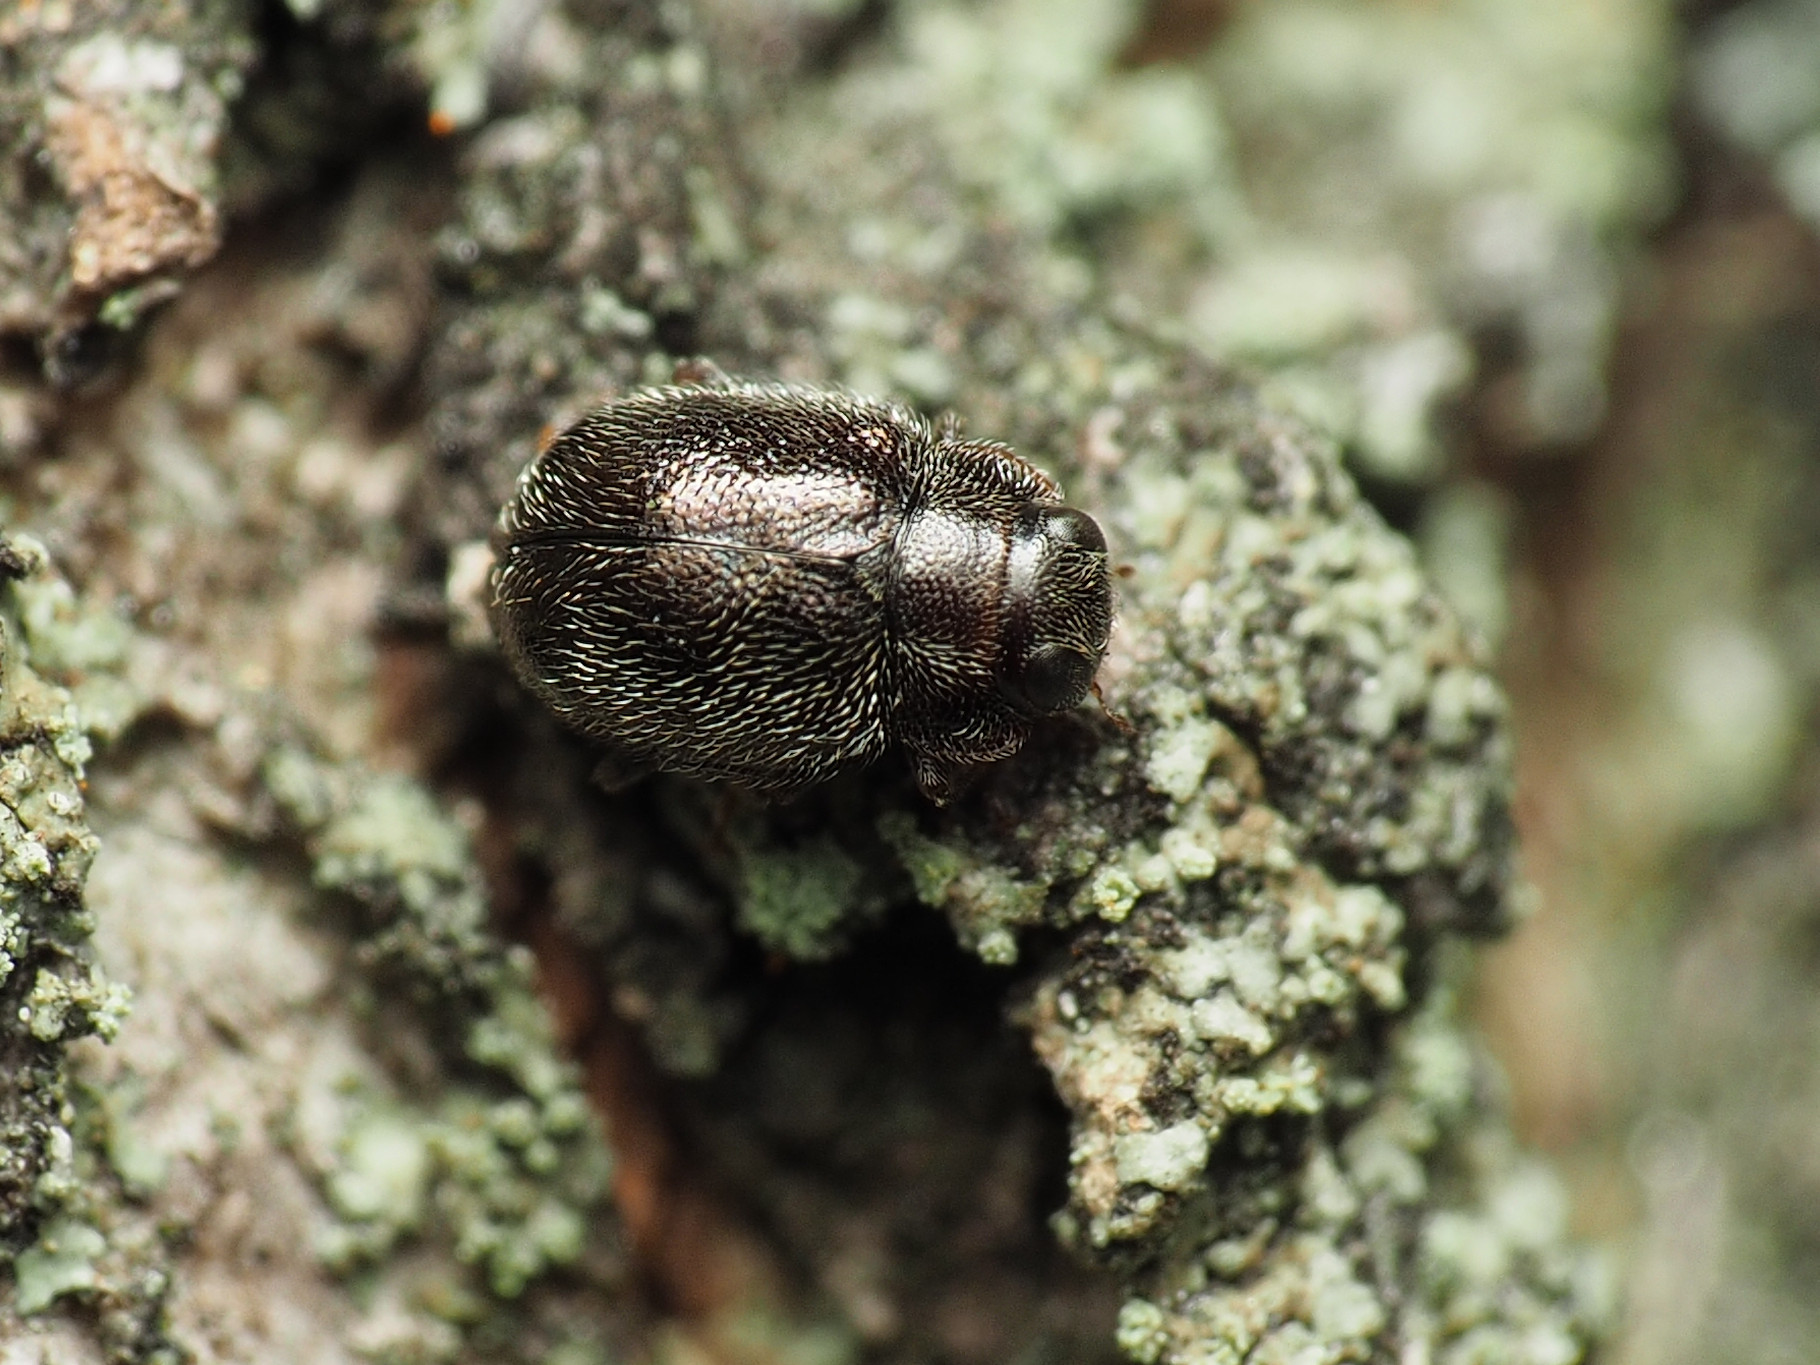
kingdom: Animalia
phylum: Arthropoda
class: Insecta
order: Coleoptera
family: Coccinellidae
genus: Cephaloscymnus
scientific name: Cephaloscymnus zimmermanni
